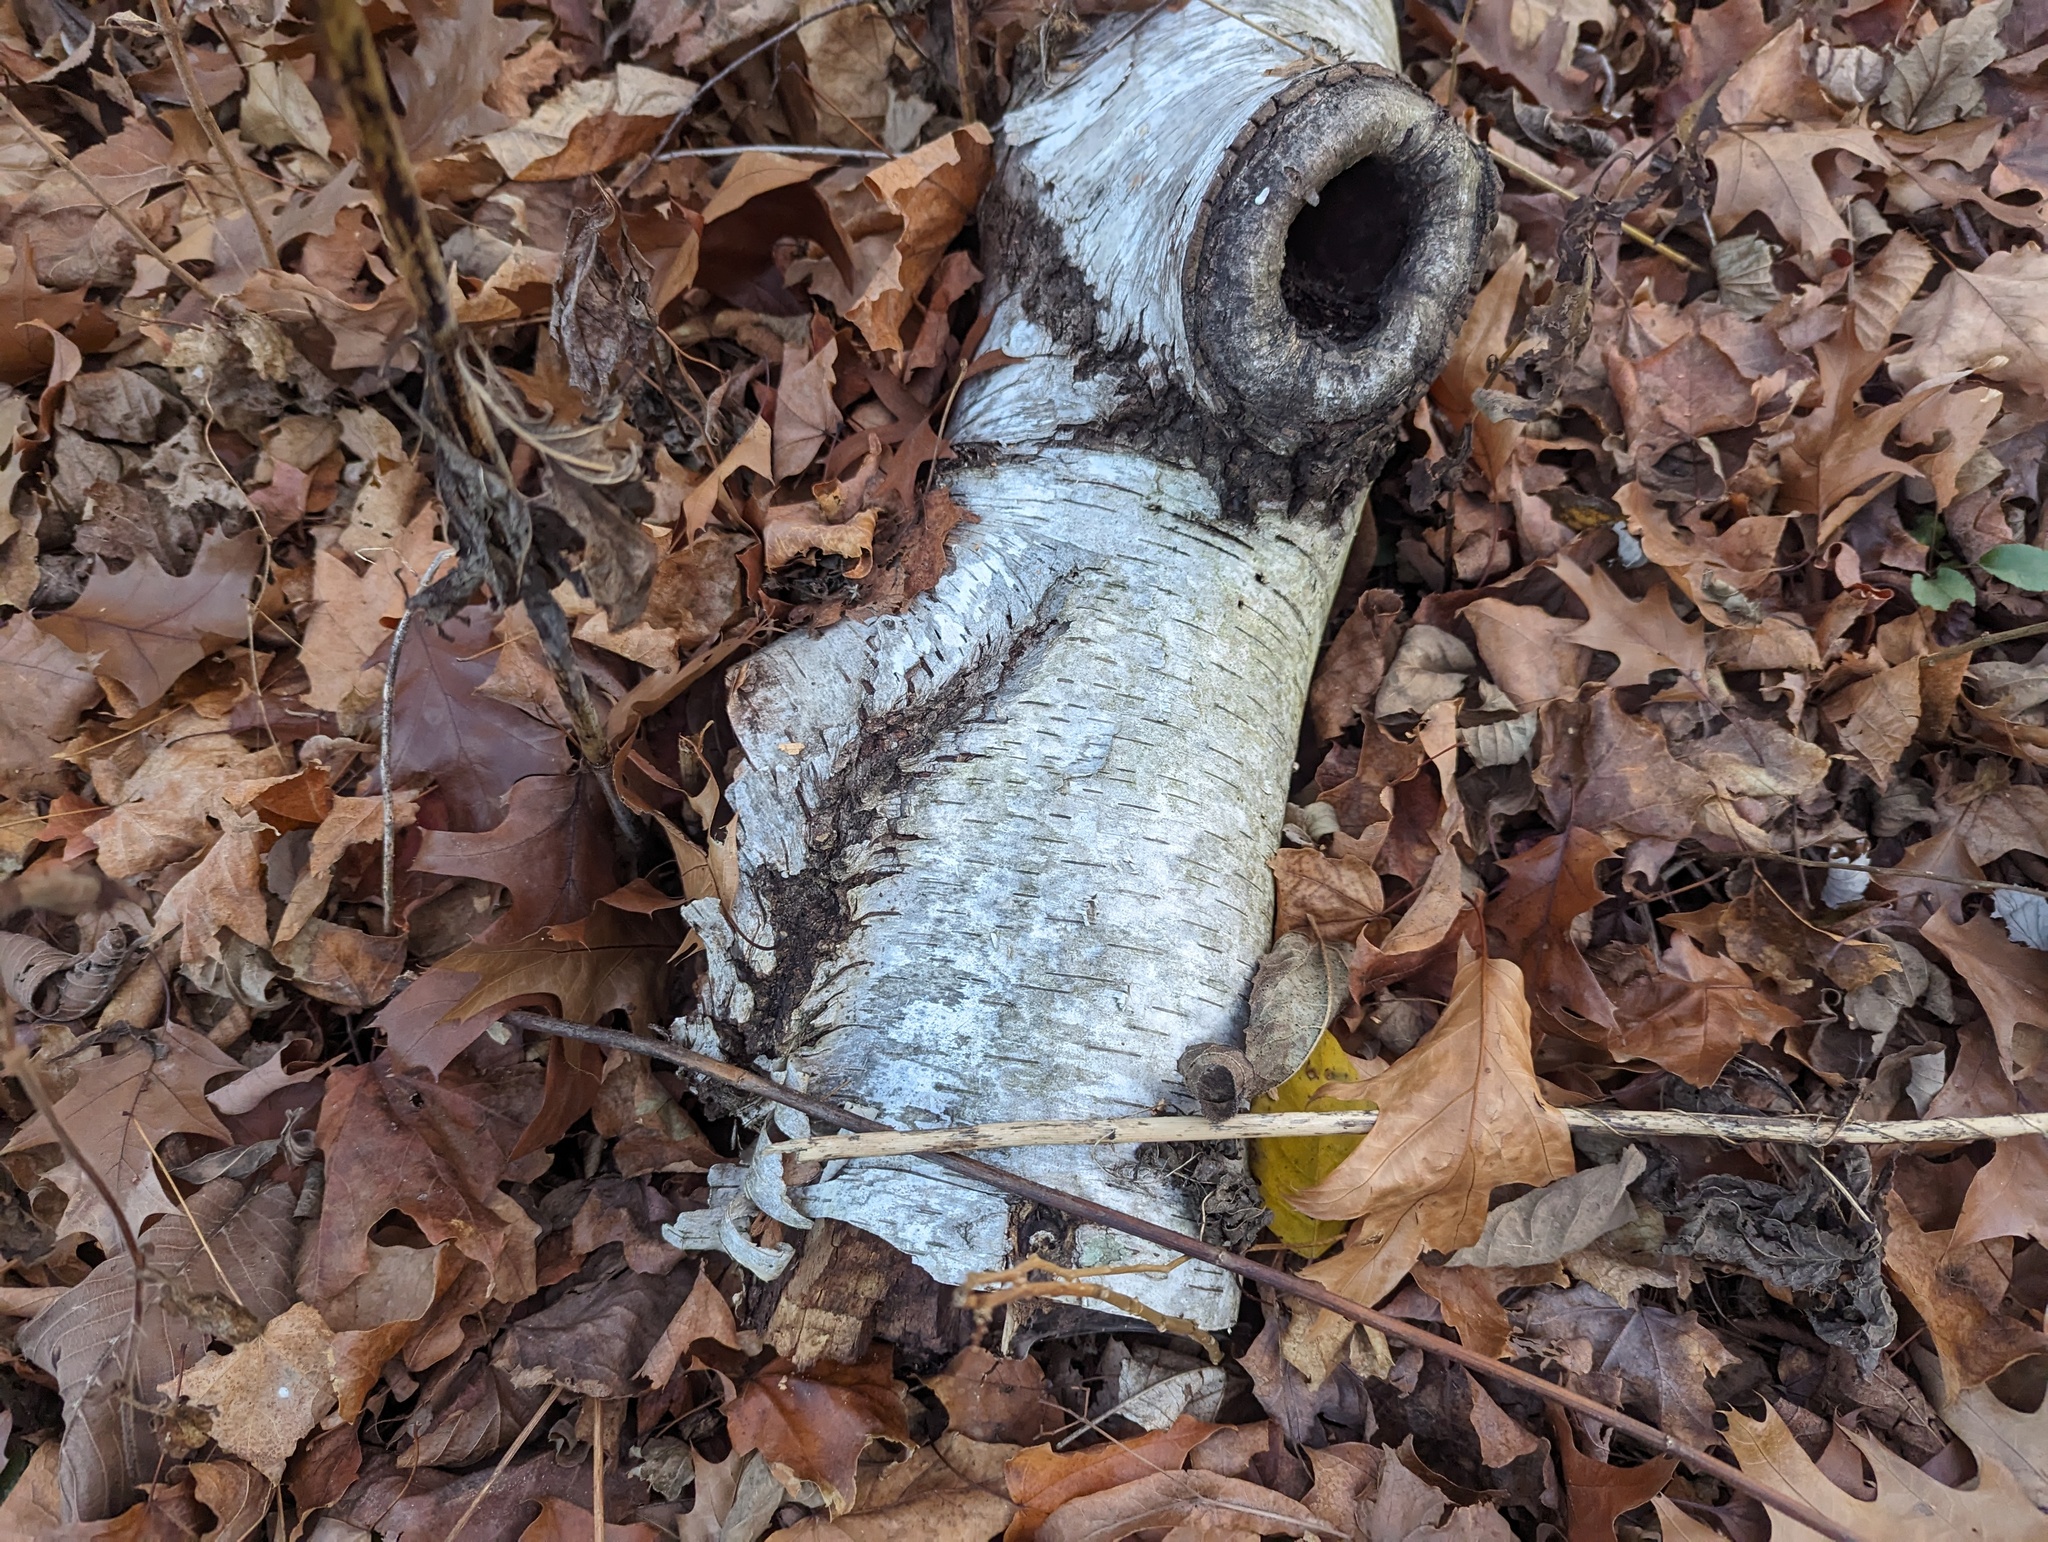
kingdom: Plantae
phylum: Tracheophyta
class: Magnoliopsida
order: Fagales
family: Betulaceae
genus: Betula
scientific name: Betula papyrifera
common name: Paper birch
